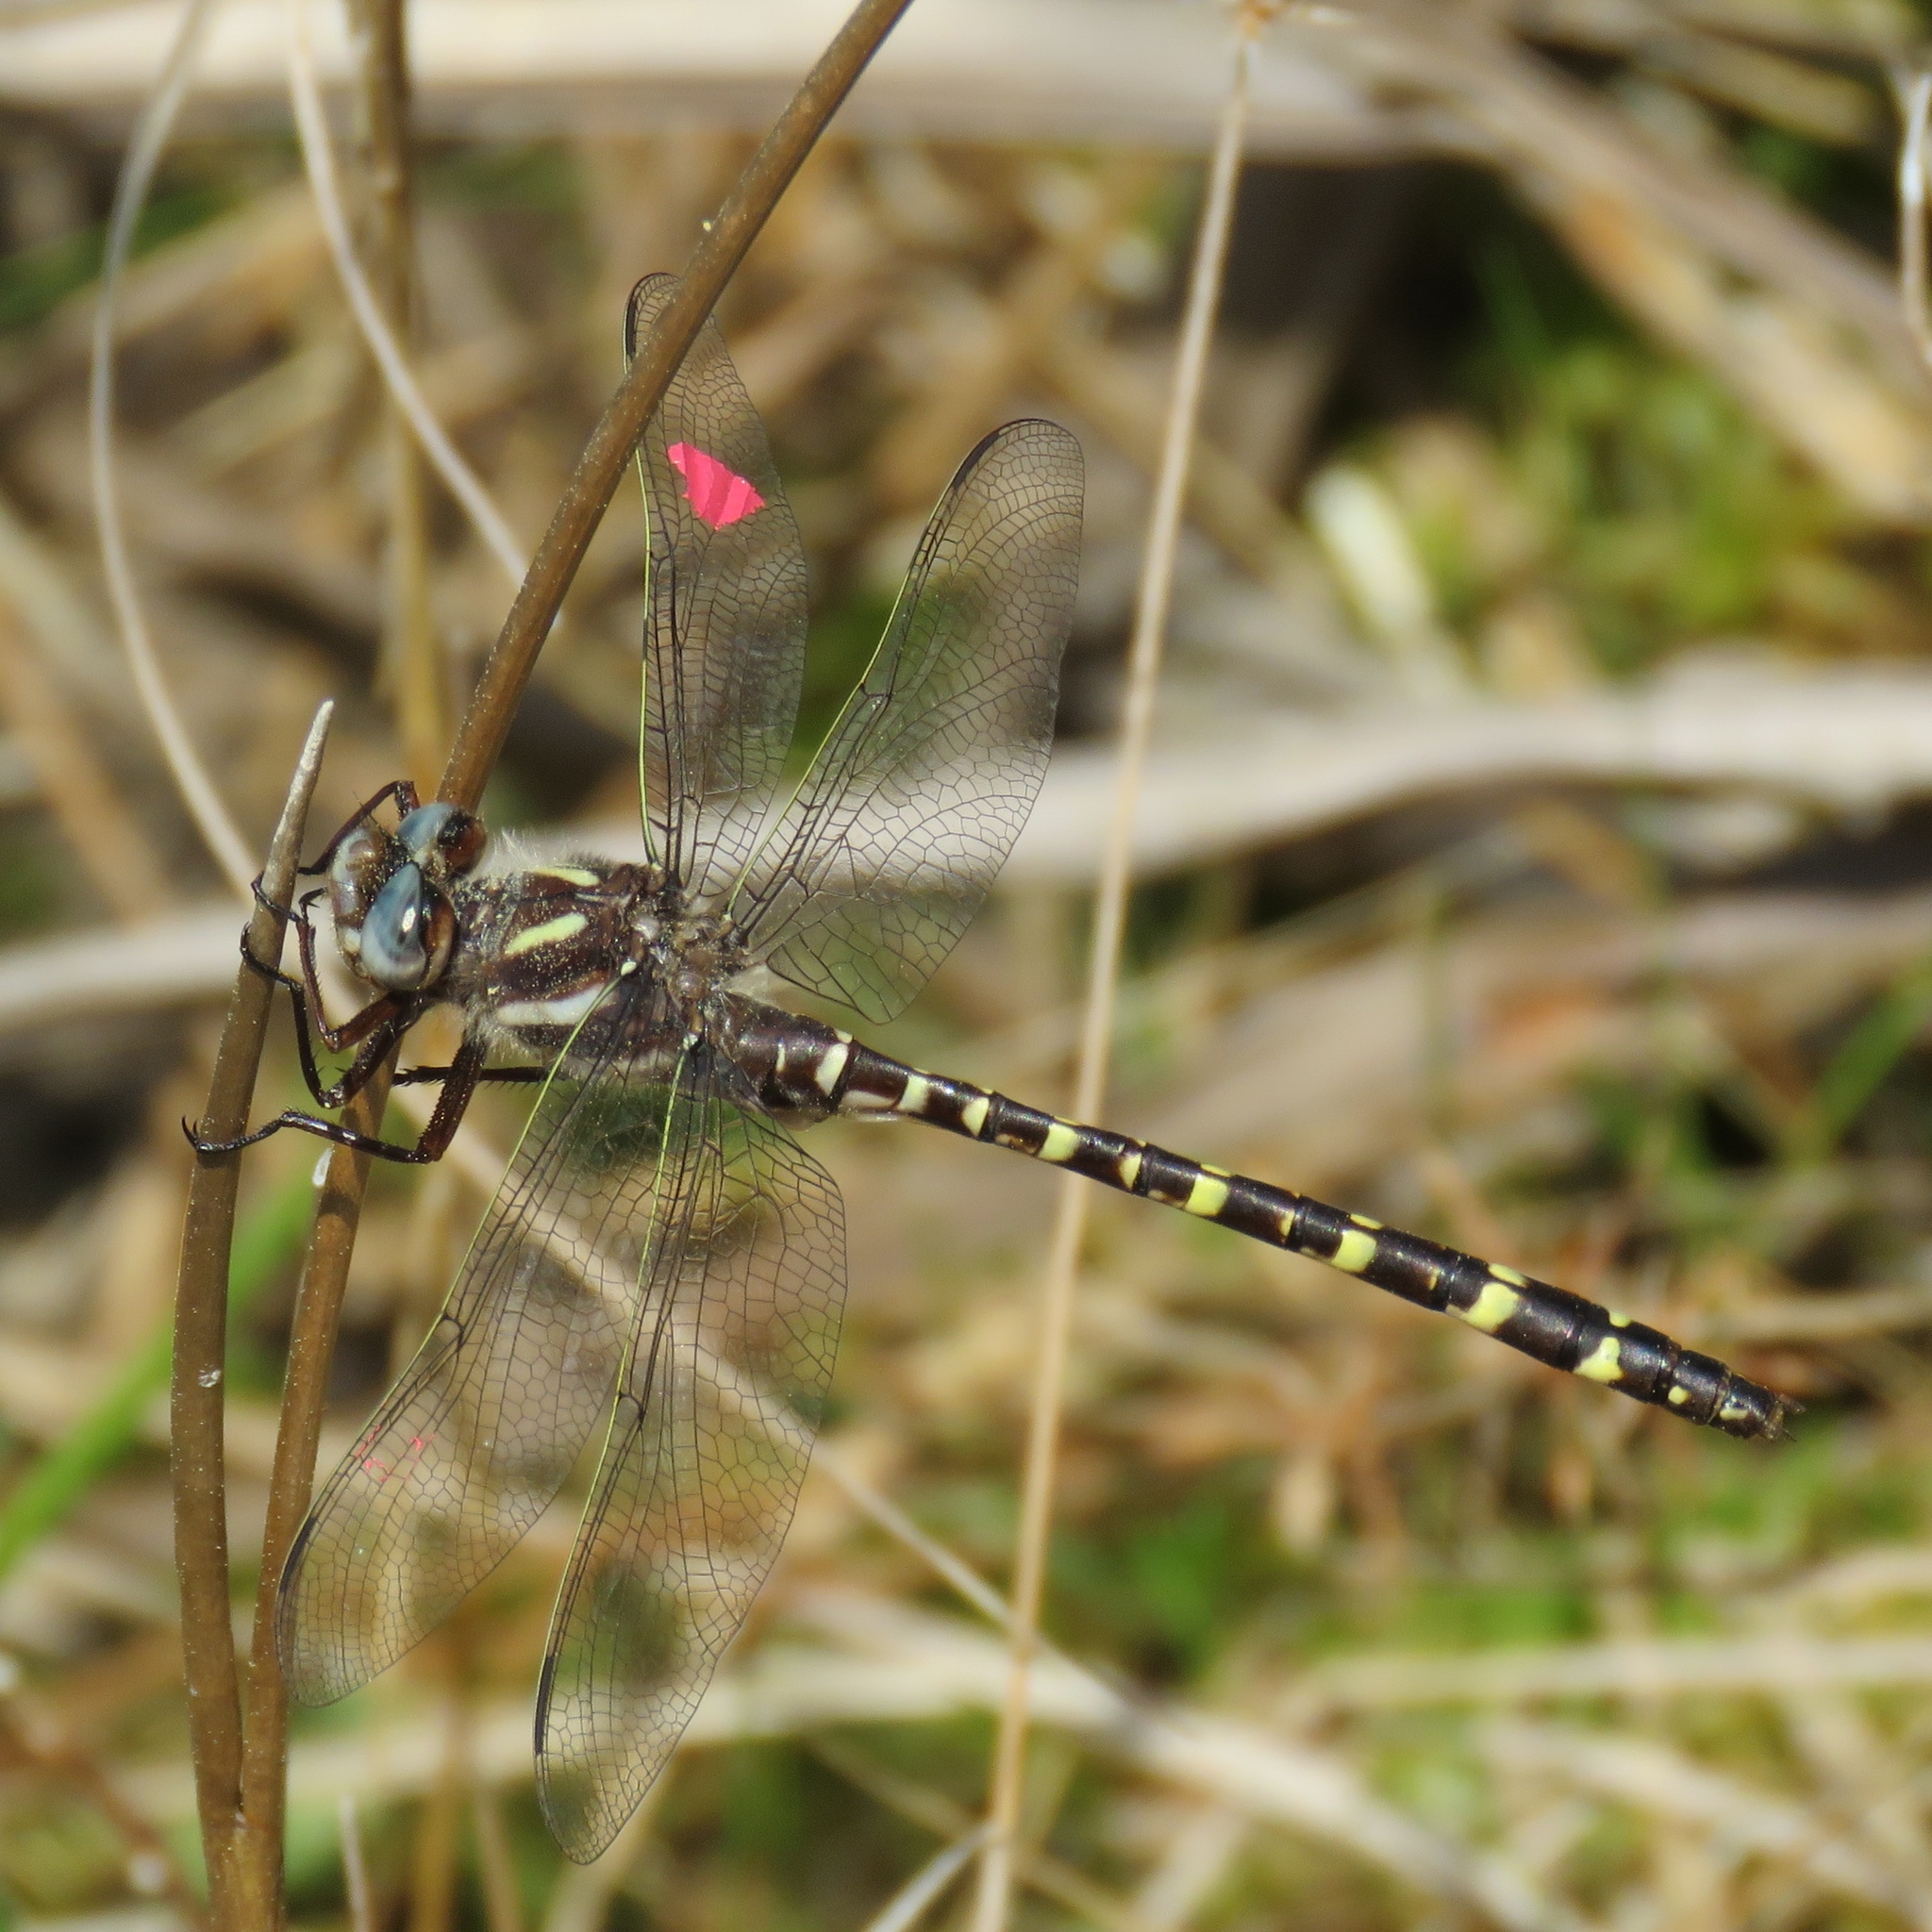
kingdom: Animalia
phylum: Arthropoda
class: Insecta
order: Odonata
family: Cordulegastridae
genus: Cordulegaster
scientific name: Cordulegaster sarracenia
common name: Sarracenia spiketail
